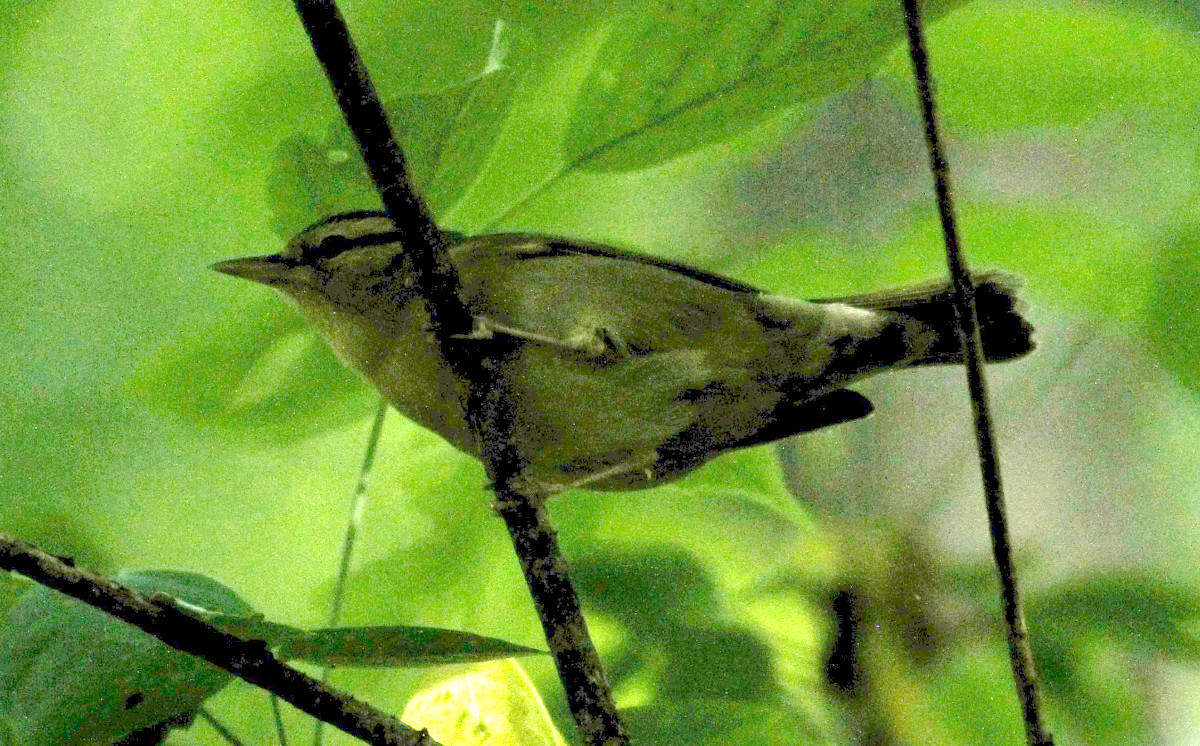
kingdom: Animalia
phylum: Chordata
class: Aves
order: Passeriformes
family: Parulidae
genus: Helmitheros
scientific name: Helmitheros vermivorum
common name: Worm-eating warbler
